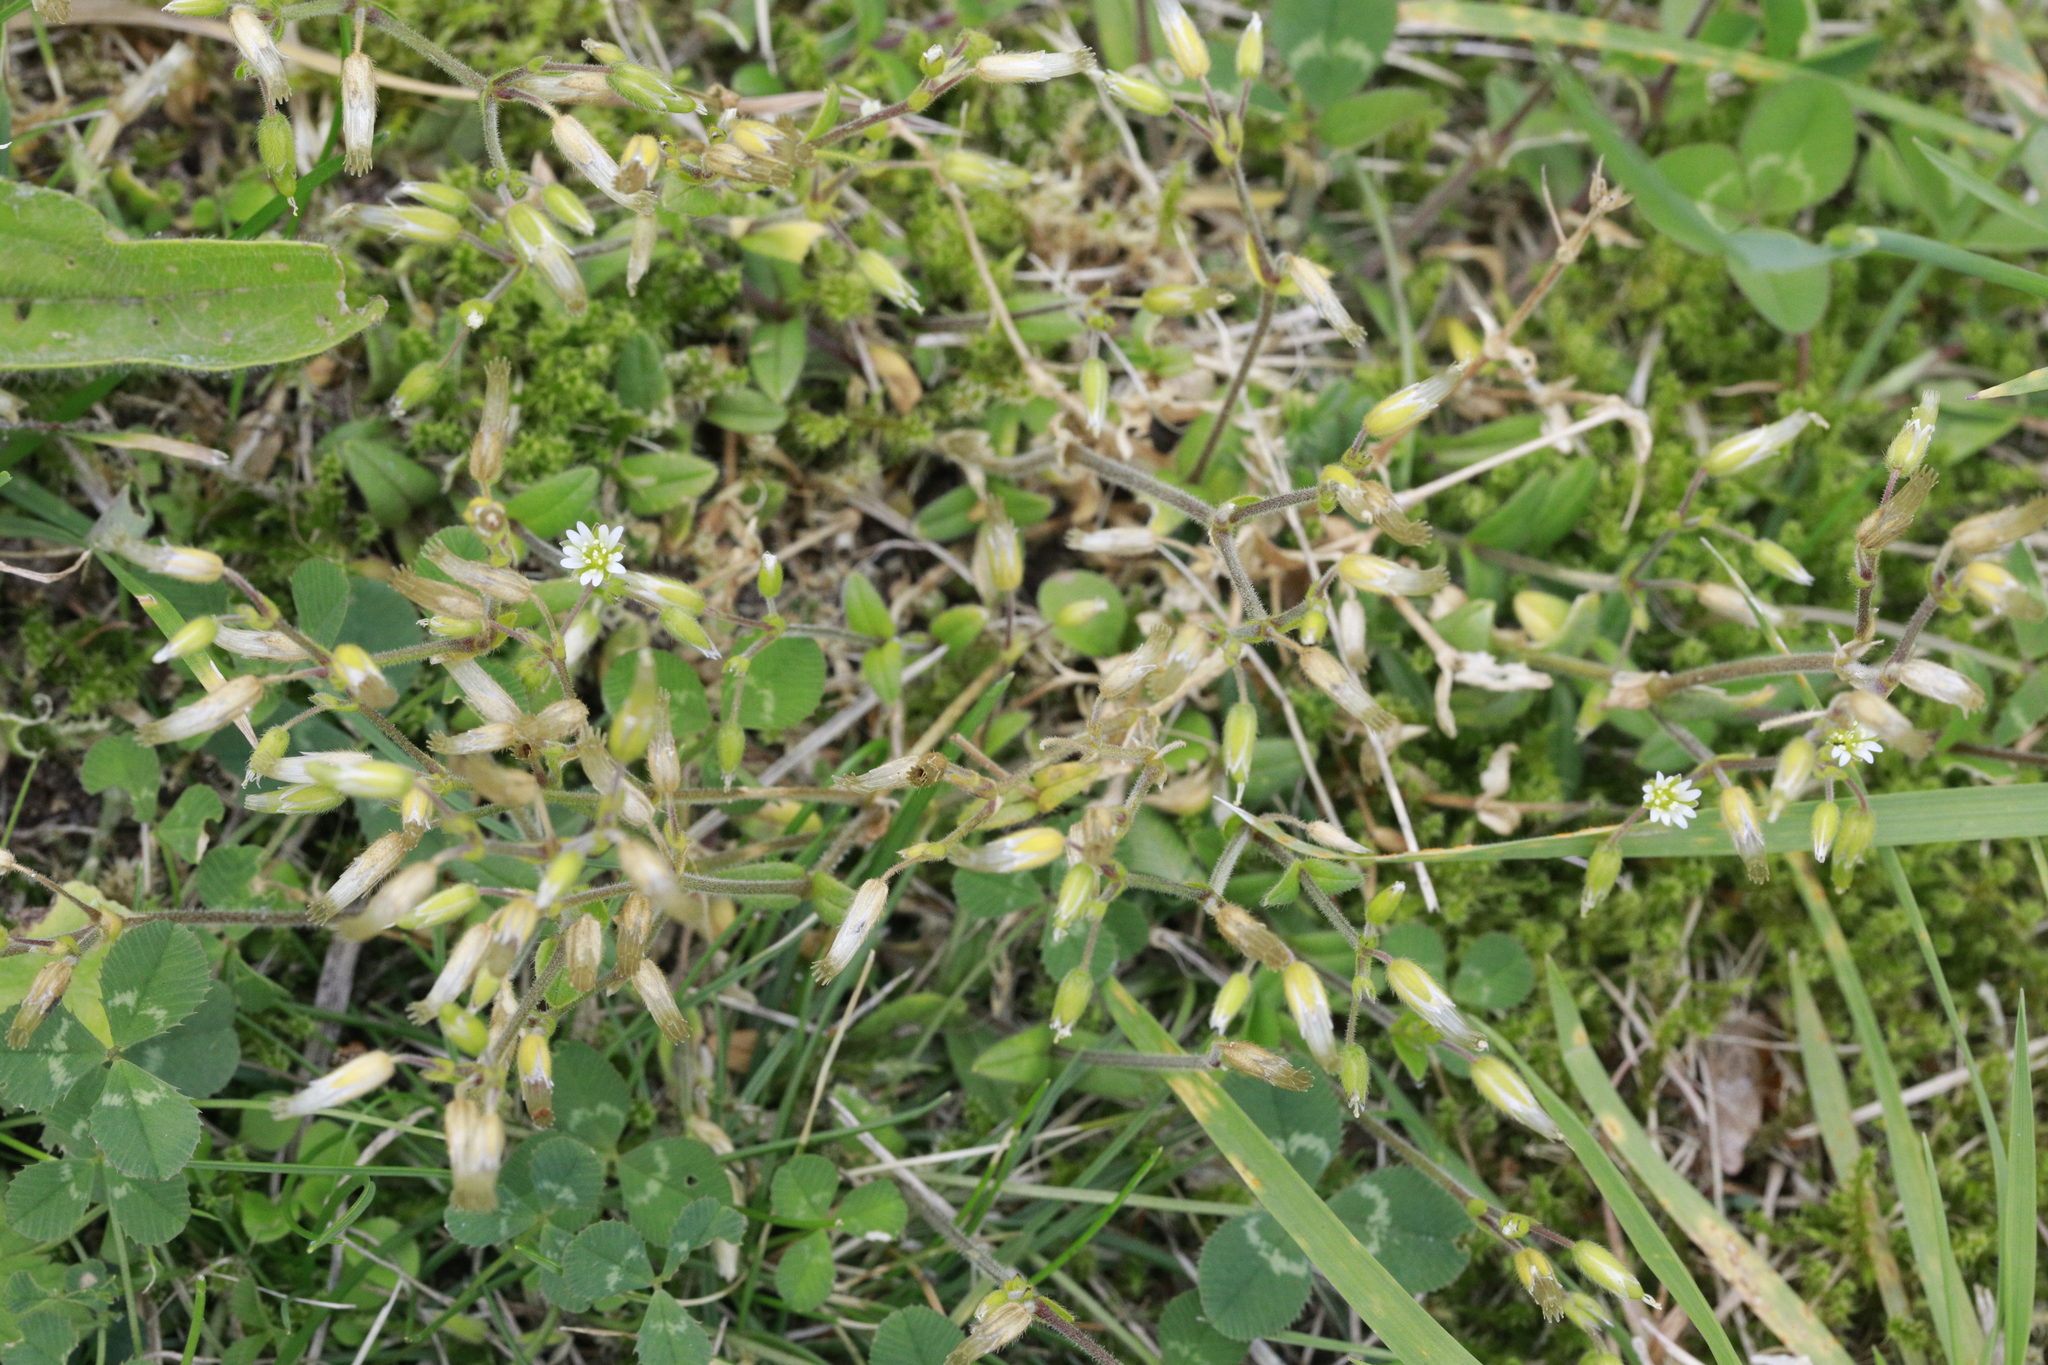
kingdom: Plantae
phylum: Tracheophyta
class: Magnoliopsida
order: Caryophyllales
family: Caryophyllaceae
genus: Cerastium
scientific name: Cerastium fontanum
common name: Common mouse-ear
